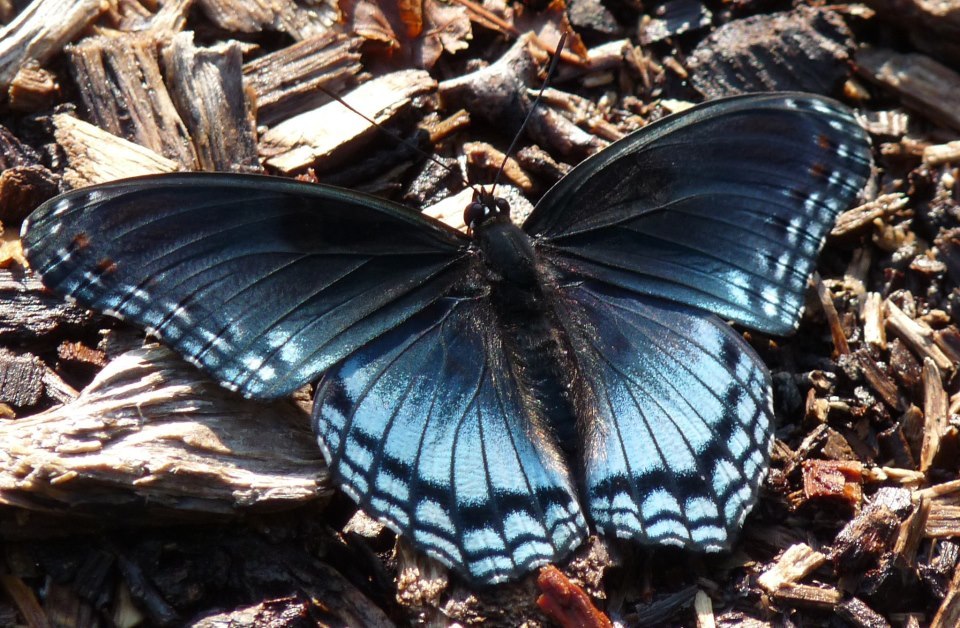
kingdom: Animalia
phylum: Arthropoda
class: Insecta
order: Lepidoptera
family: Nymphalidae
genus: Limenitis
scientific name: Limenitis arthemis
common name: Red-spotted admiral
